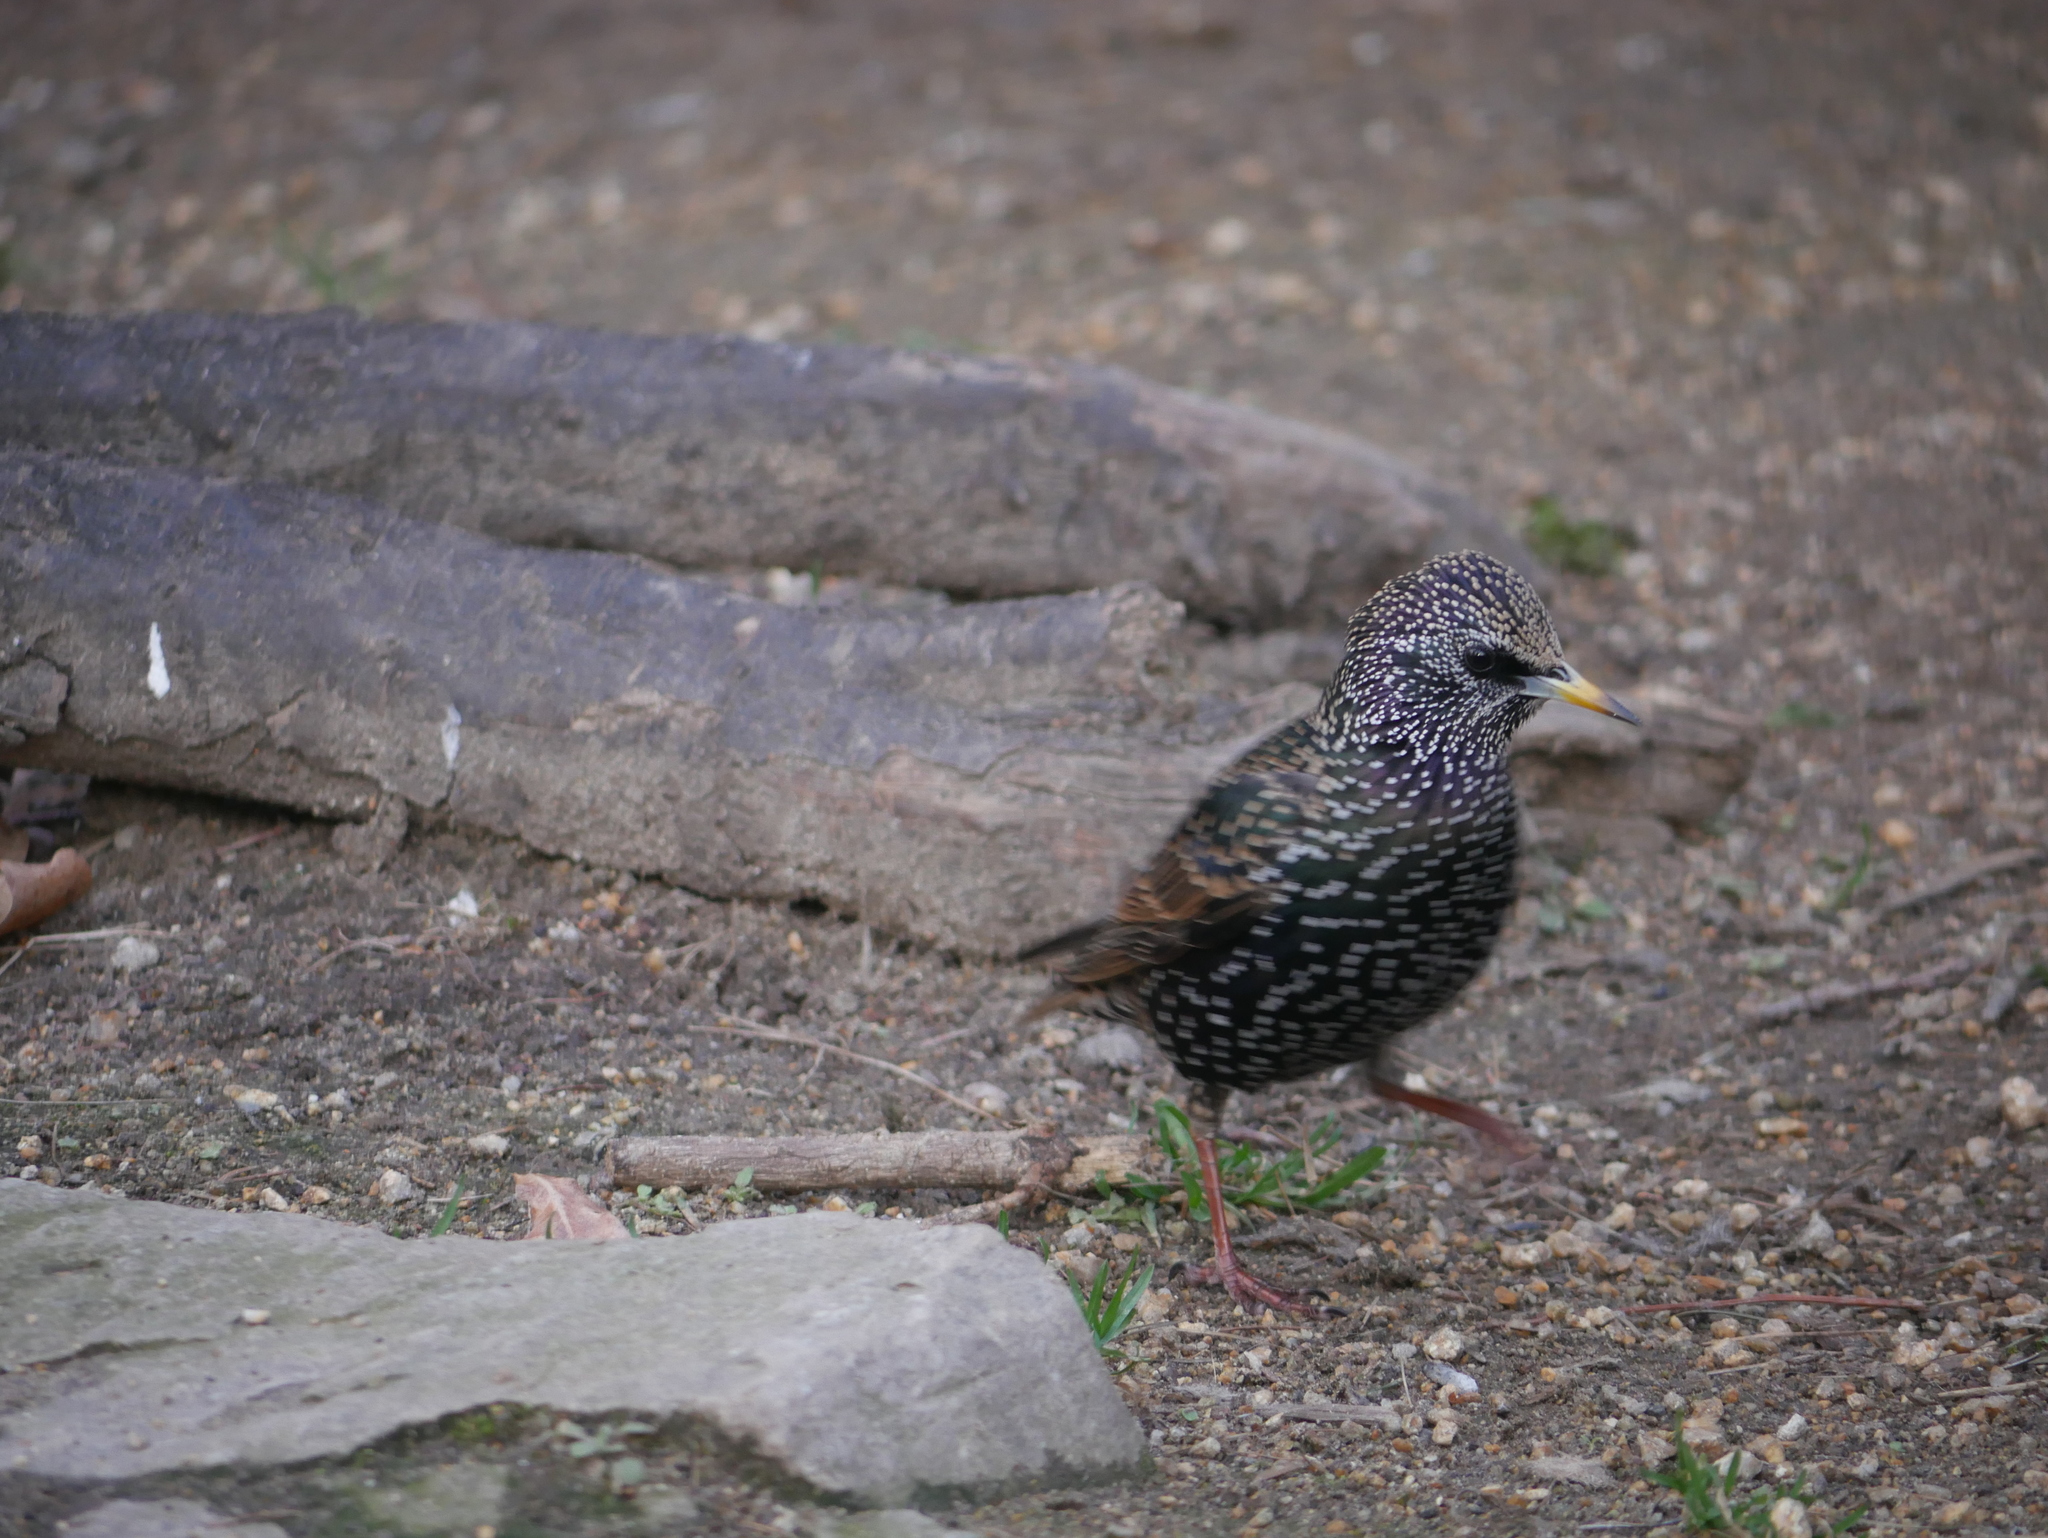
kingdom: Animalia
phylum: Chordata
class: Aves
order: Passeriformes
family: Sturnidae
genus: Sturnus
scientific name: Sturnus vulgaris
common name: Common starling
